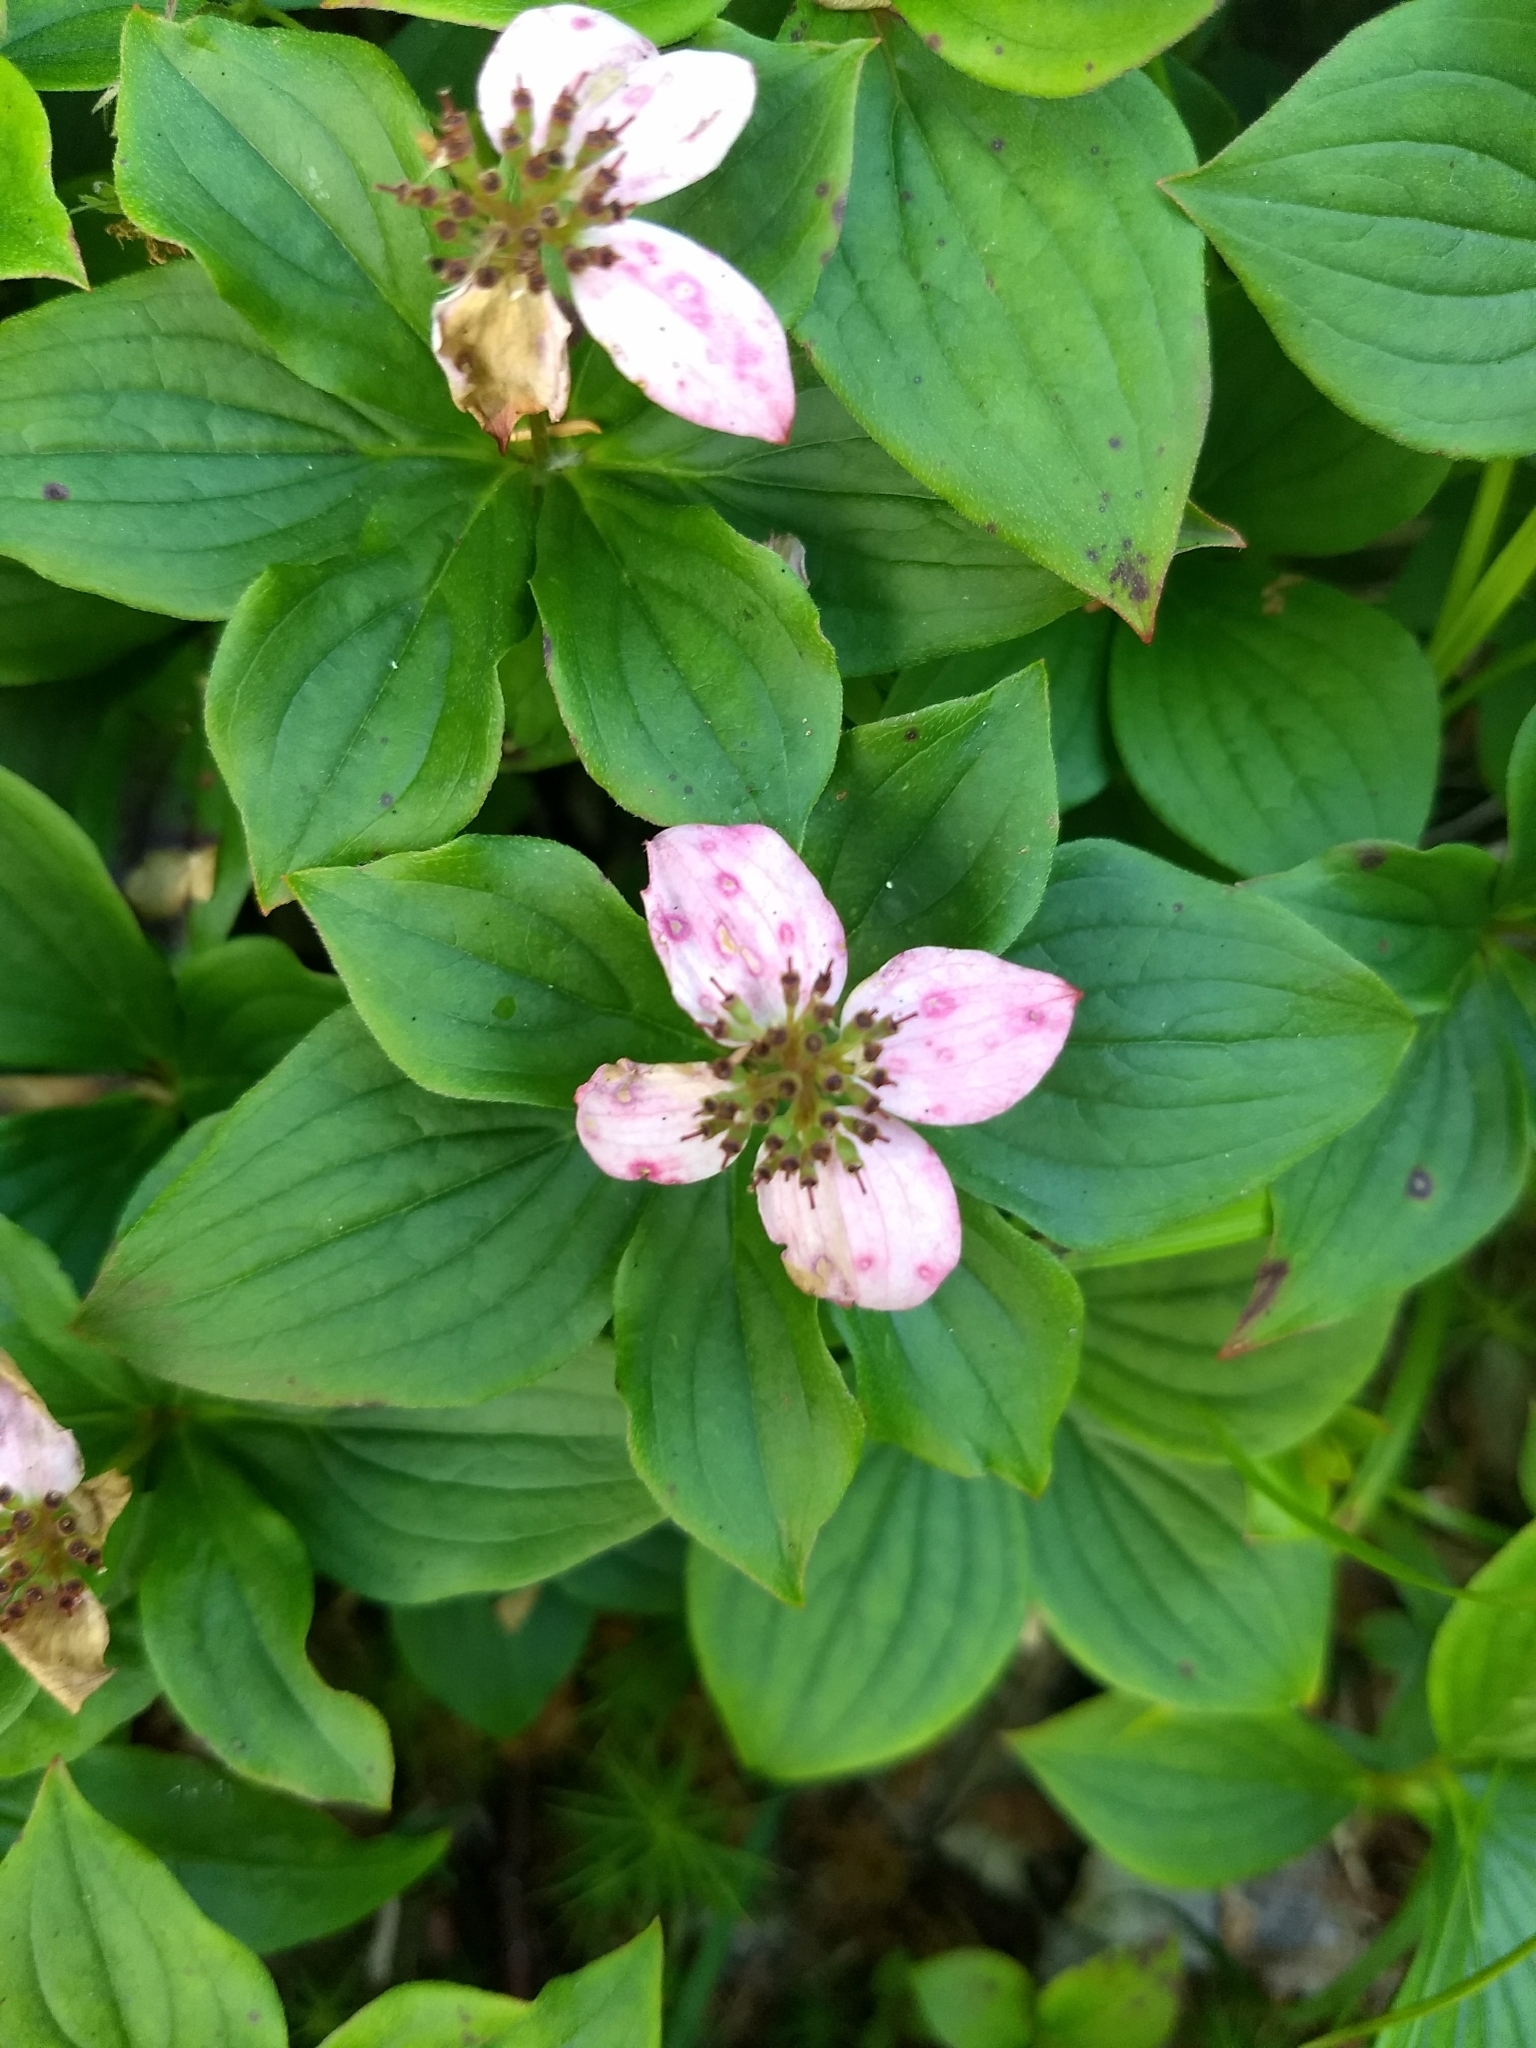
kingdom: Plantae
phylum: Tracheophyta
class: Magnoliopsida
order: Cornales
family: Cornaceae
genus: Cornus
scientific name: Cornus canadensis
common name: Creeping dogwood
